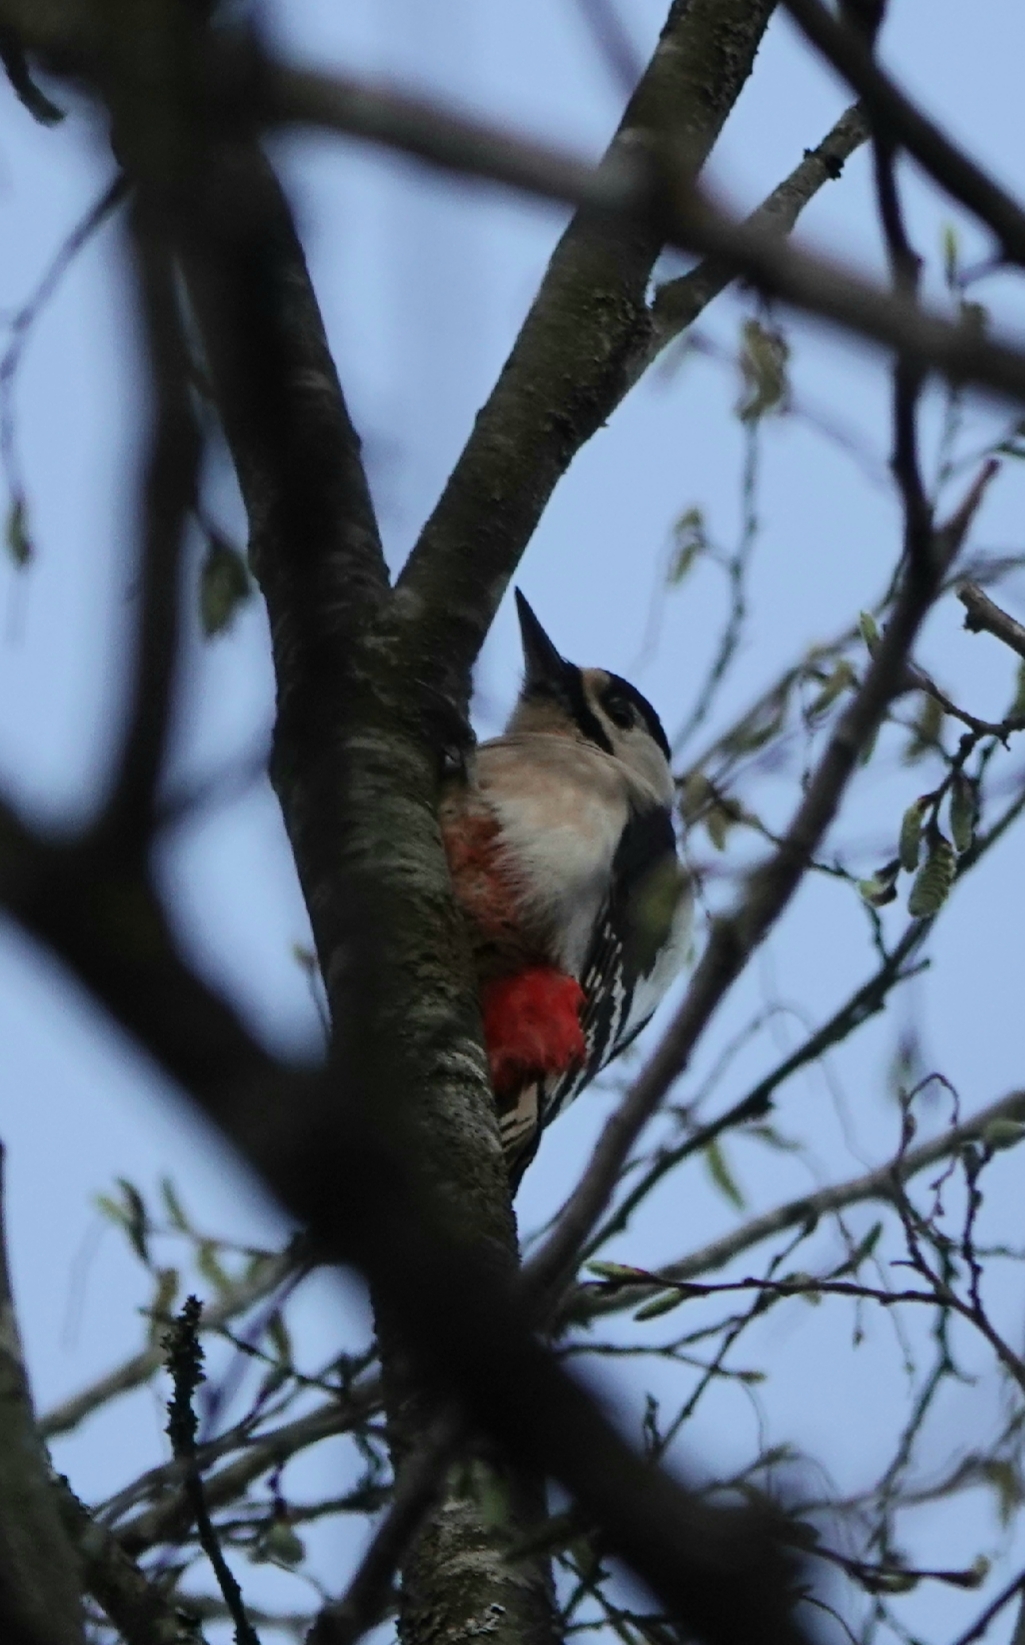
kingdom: Animalia
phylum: Chordata
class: Aves
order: Piciformes
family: Picidae
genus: Dendrocopos
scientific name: Dendrocopos major
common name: Great spotted woodpecker
